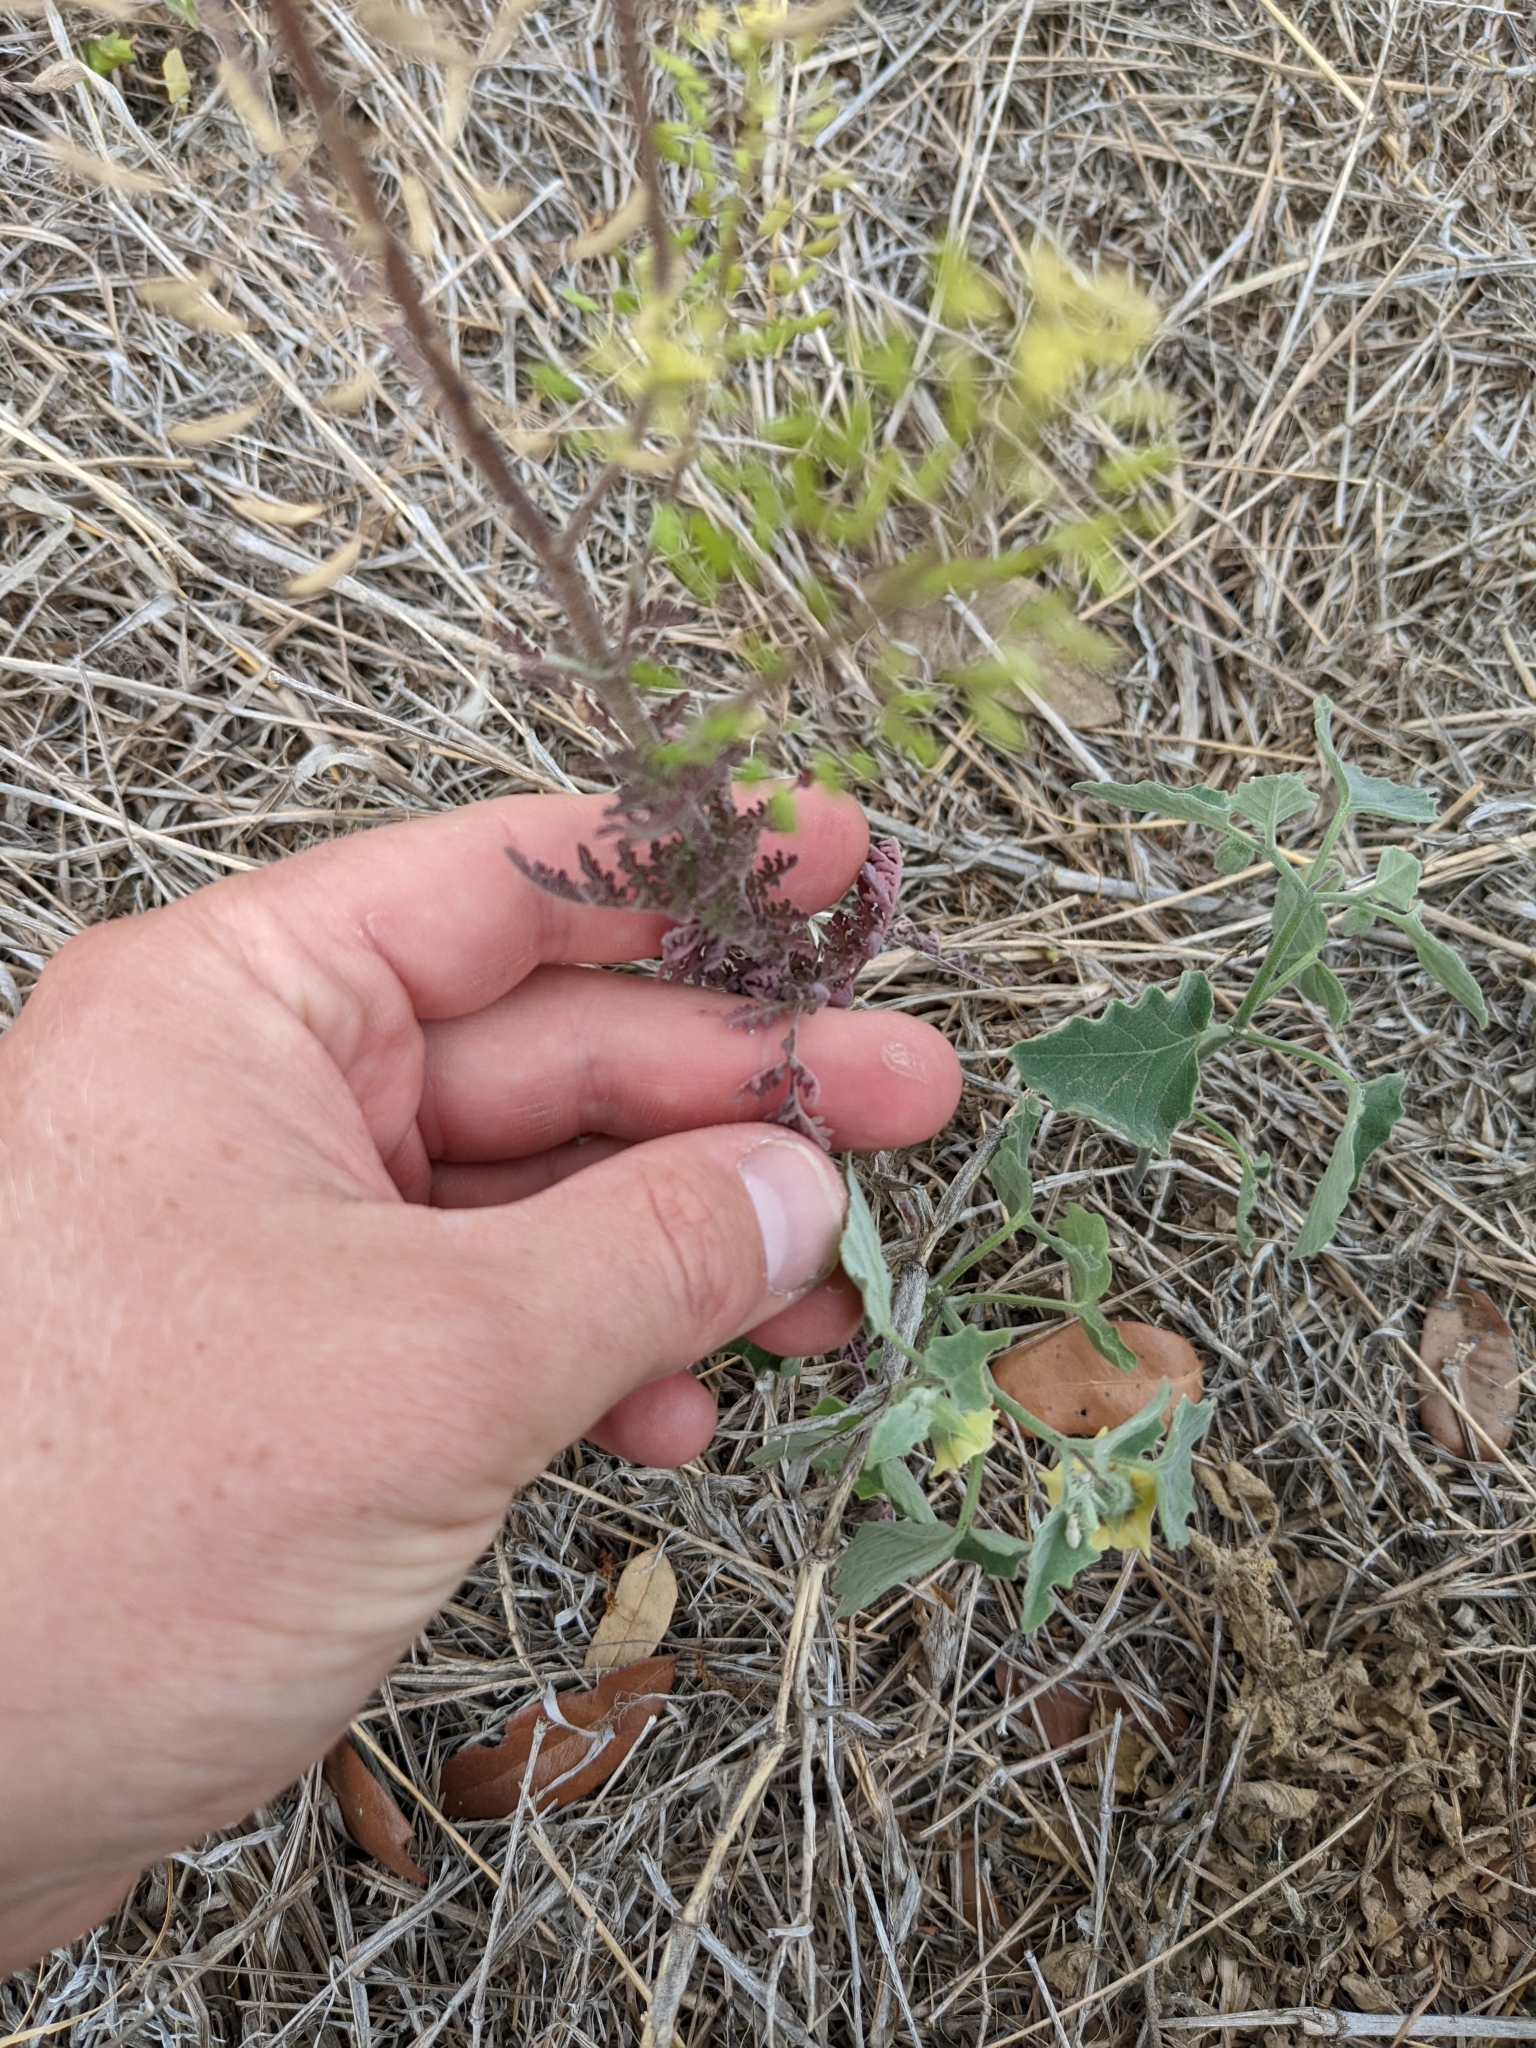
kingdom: Plantae
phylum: Tracheophyta
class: Magnoliopsida
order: Brassicales
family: Brassicaceae
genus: Descurainia
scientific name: Descurainia pinnata
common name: Western tansy mustard
